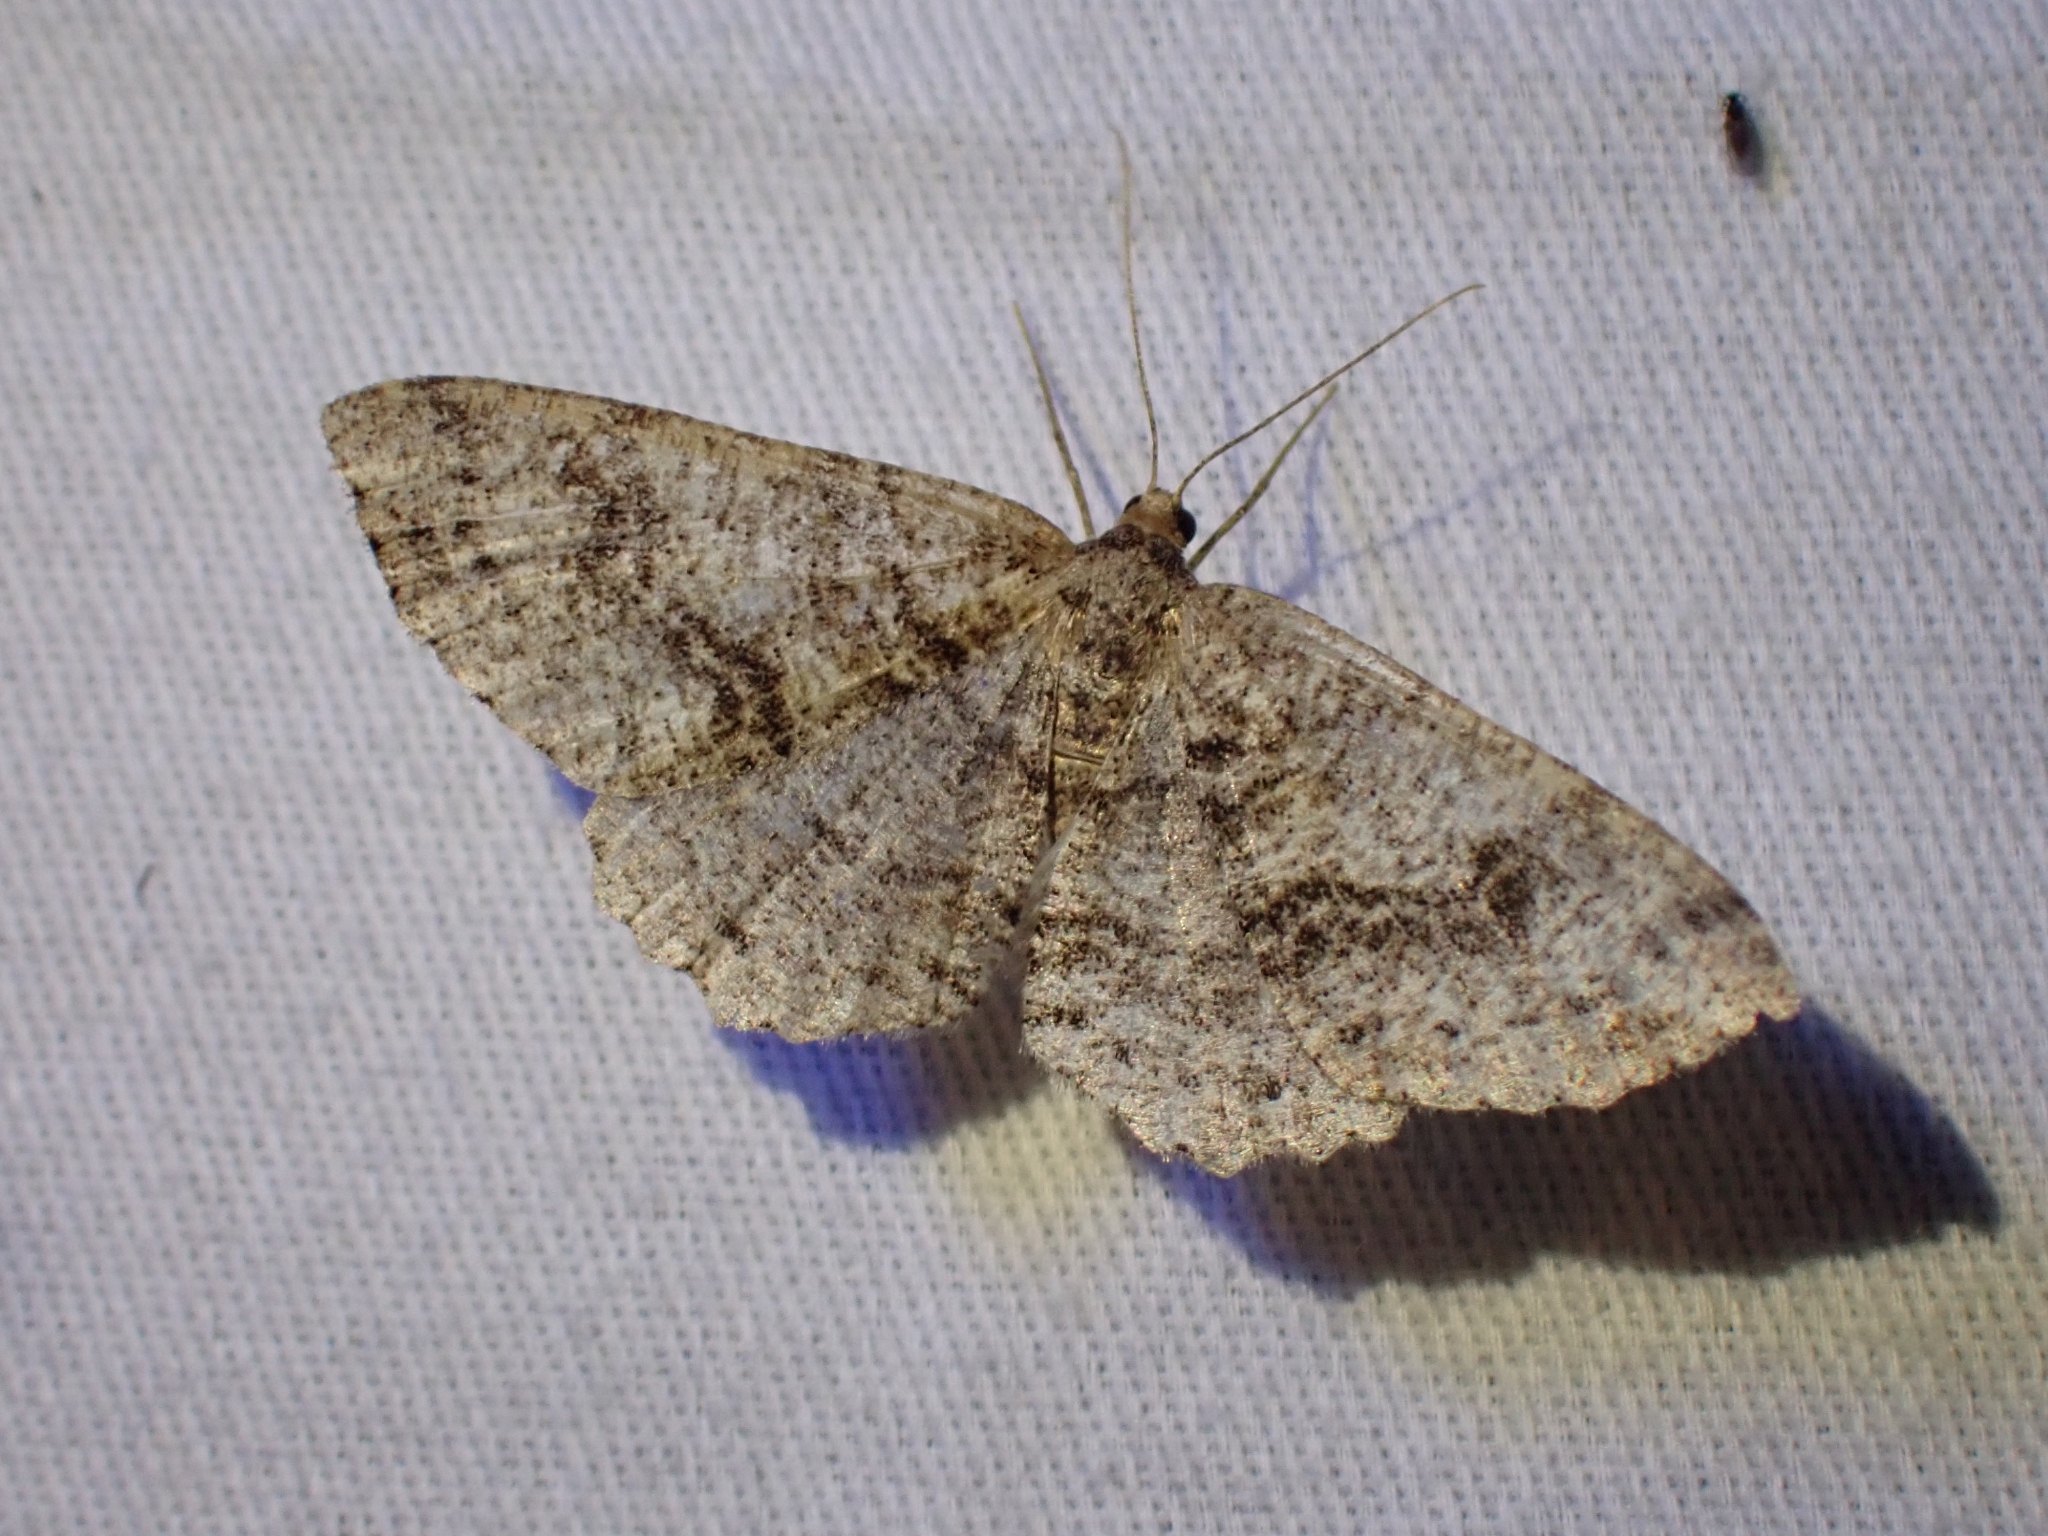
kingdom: Animalia
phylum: Arthropoda
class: Insecta
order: Lepidoptera
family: Geometridae
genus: Melanolophia
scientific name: Melanolophia imitata
